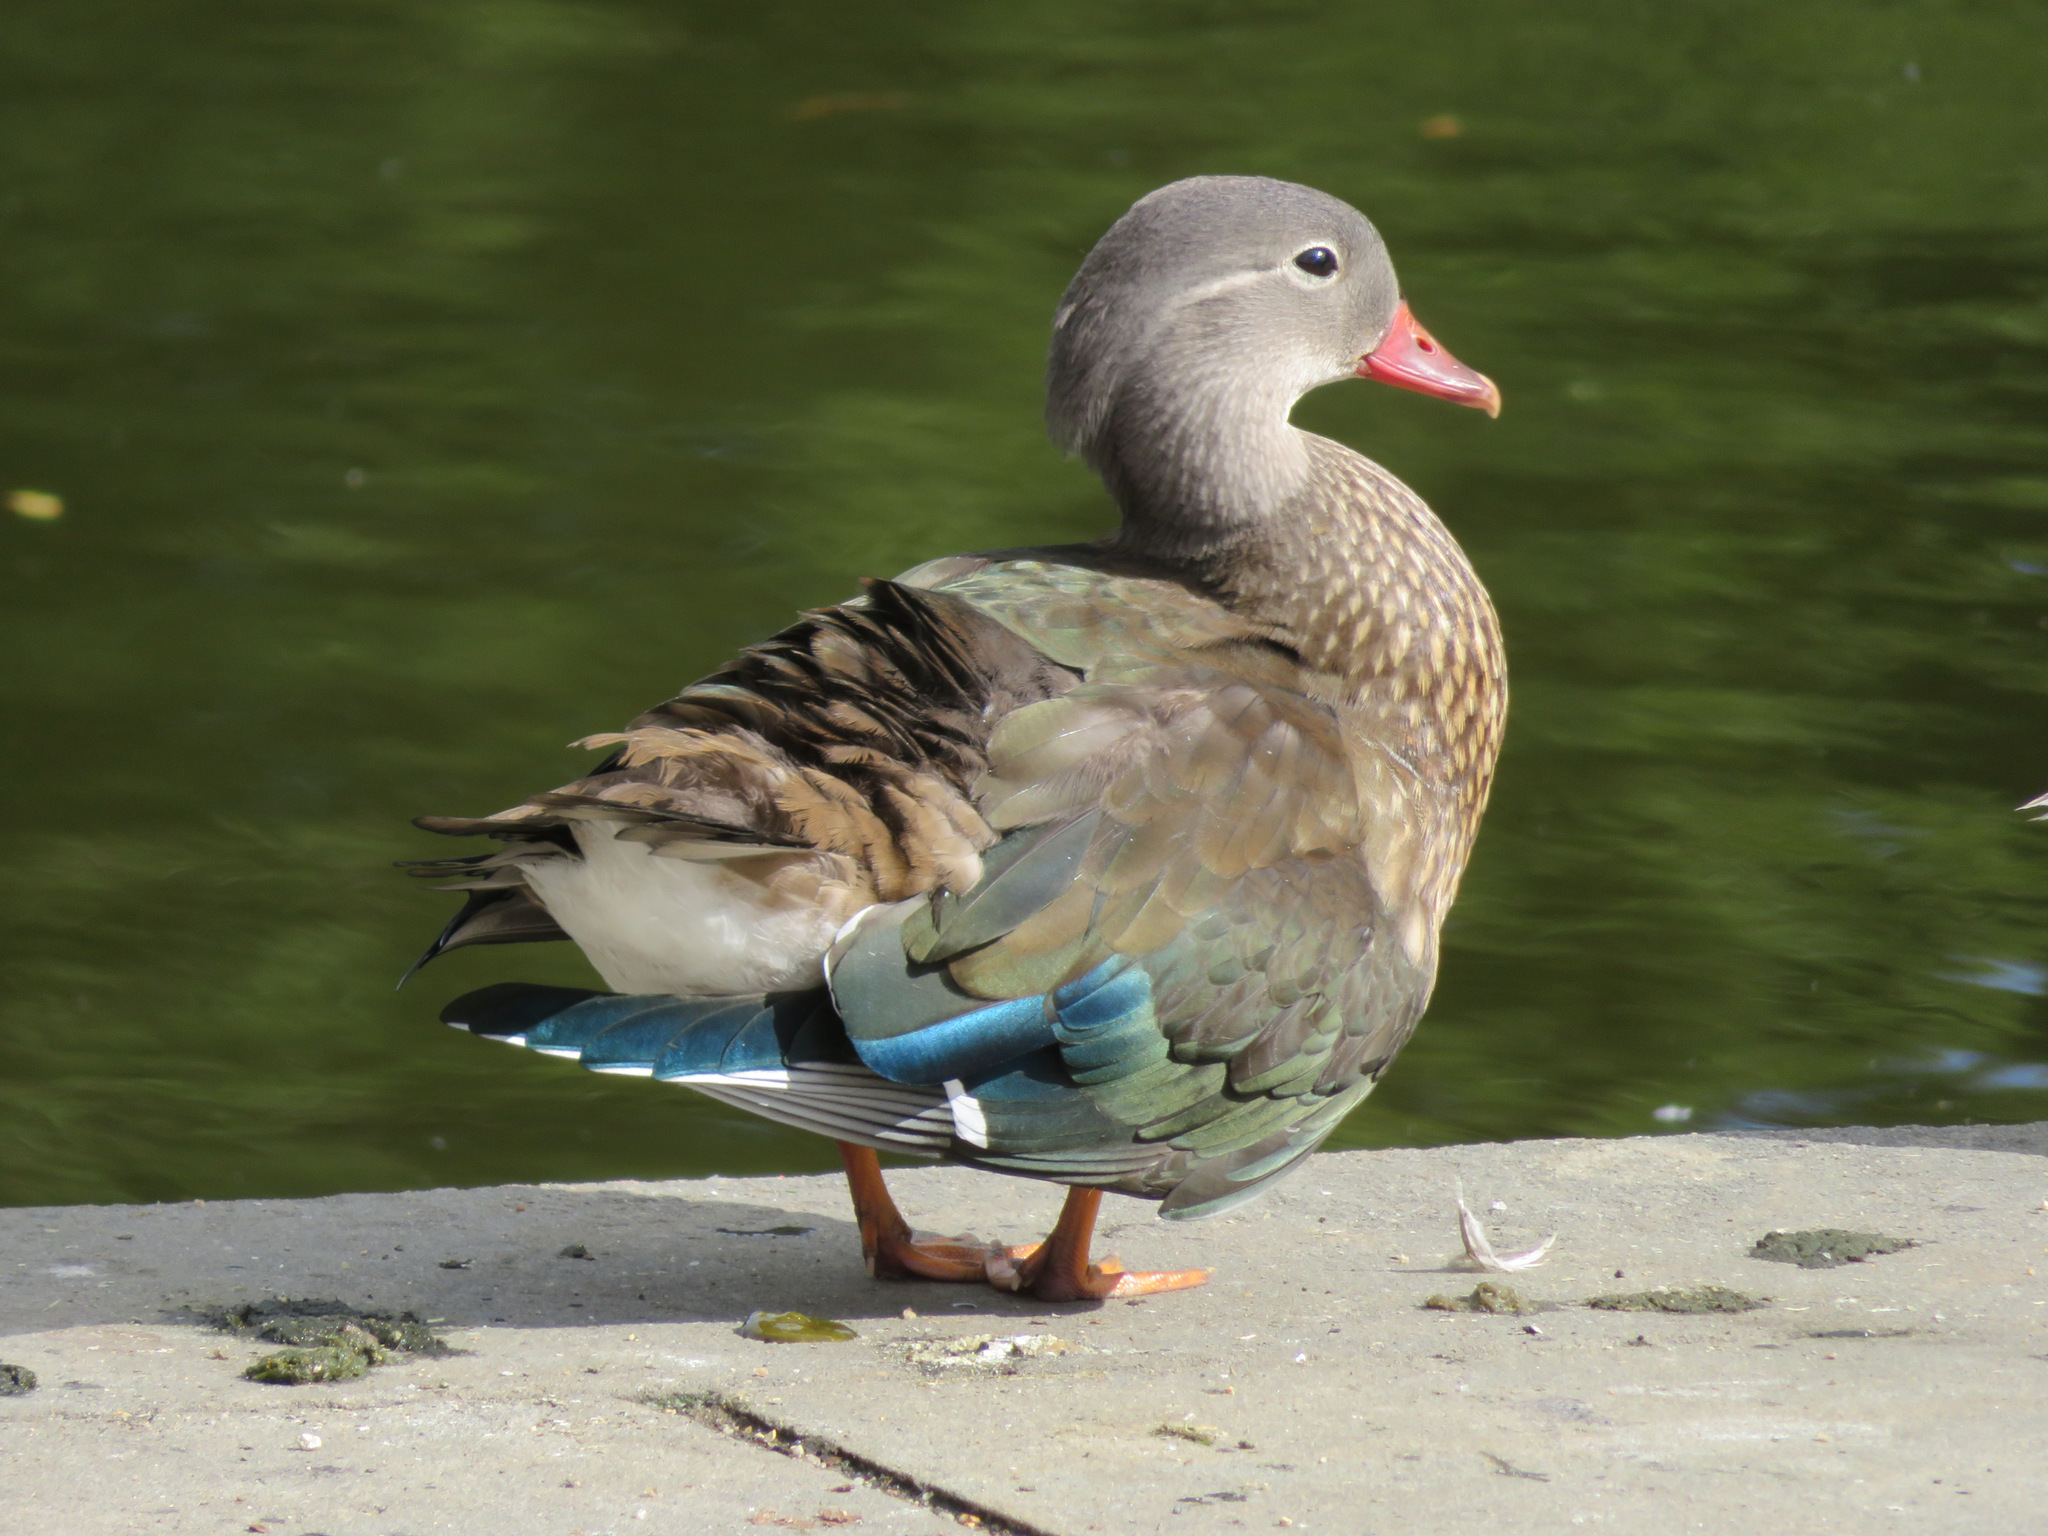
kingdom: Animalia
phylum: Chordata
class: Aves
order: Anseriformes
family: Anatidae
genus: Aix
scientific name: Aix galericulata
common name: Mandarin duck
